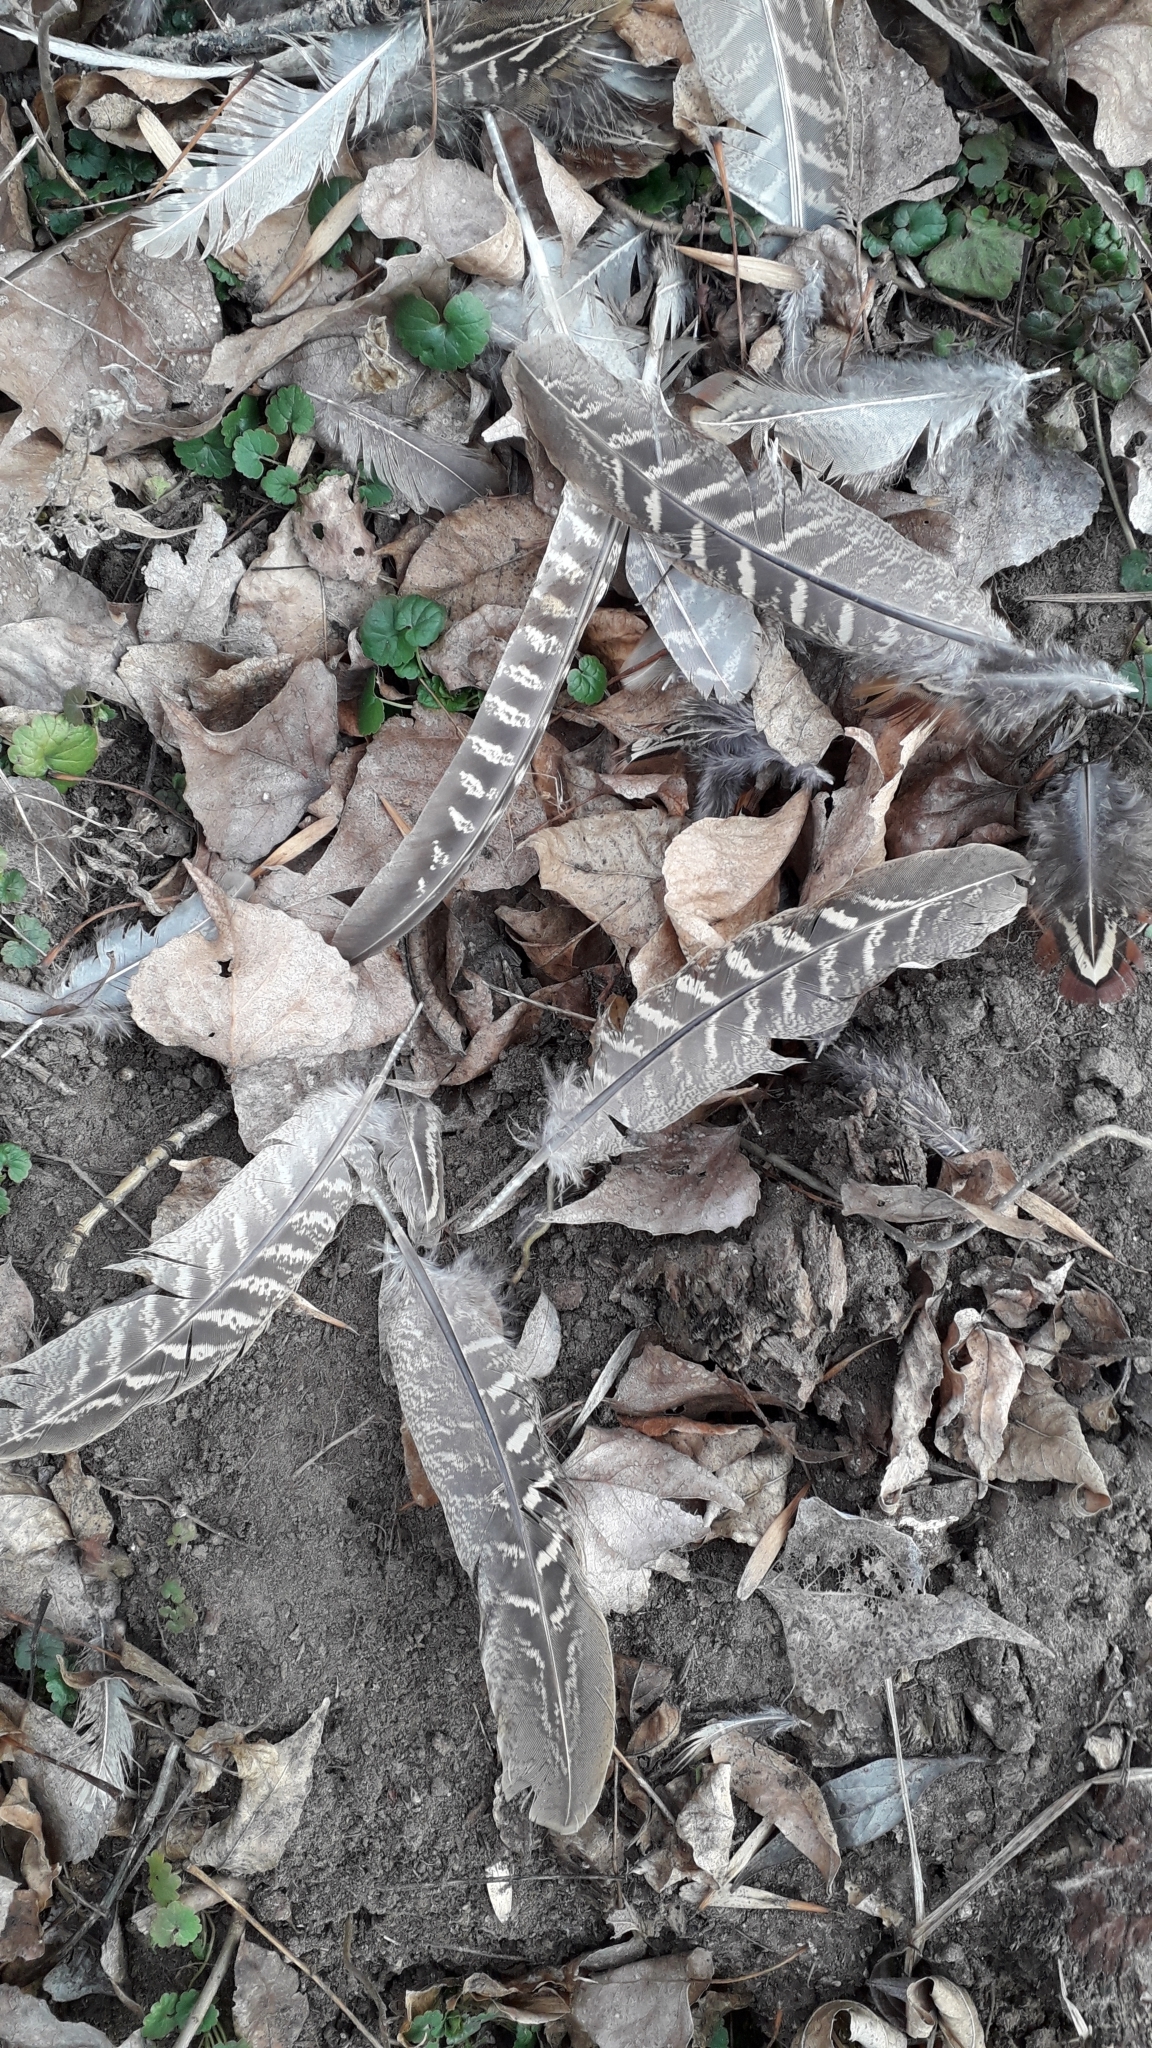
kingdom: Animalia
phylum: Chordata
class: Aves
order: Galliformes
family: Phasianidae
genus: Phasianus
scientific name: Phasianus colchicus
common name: Common pheasant
